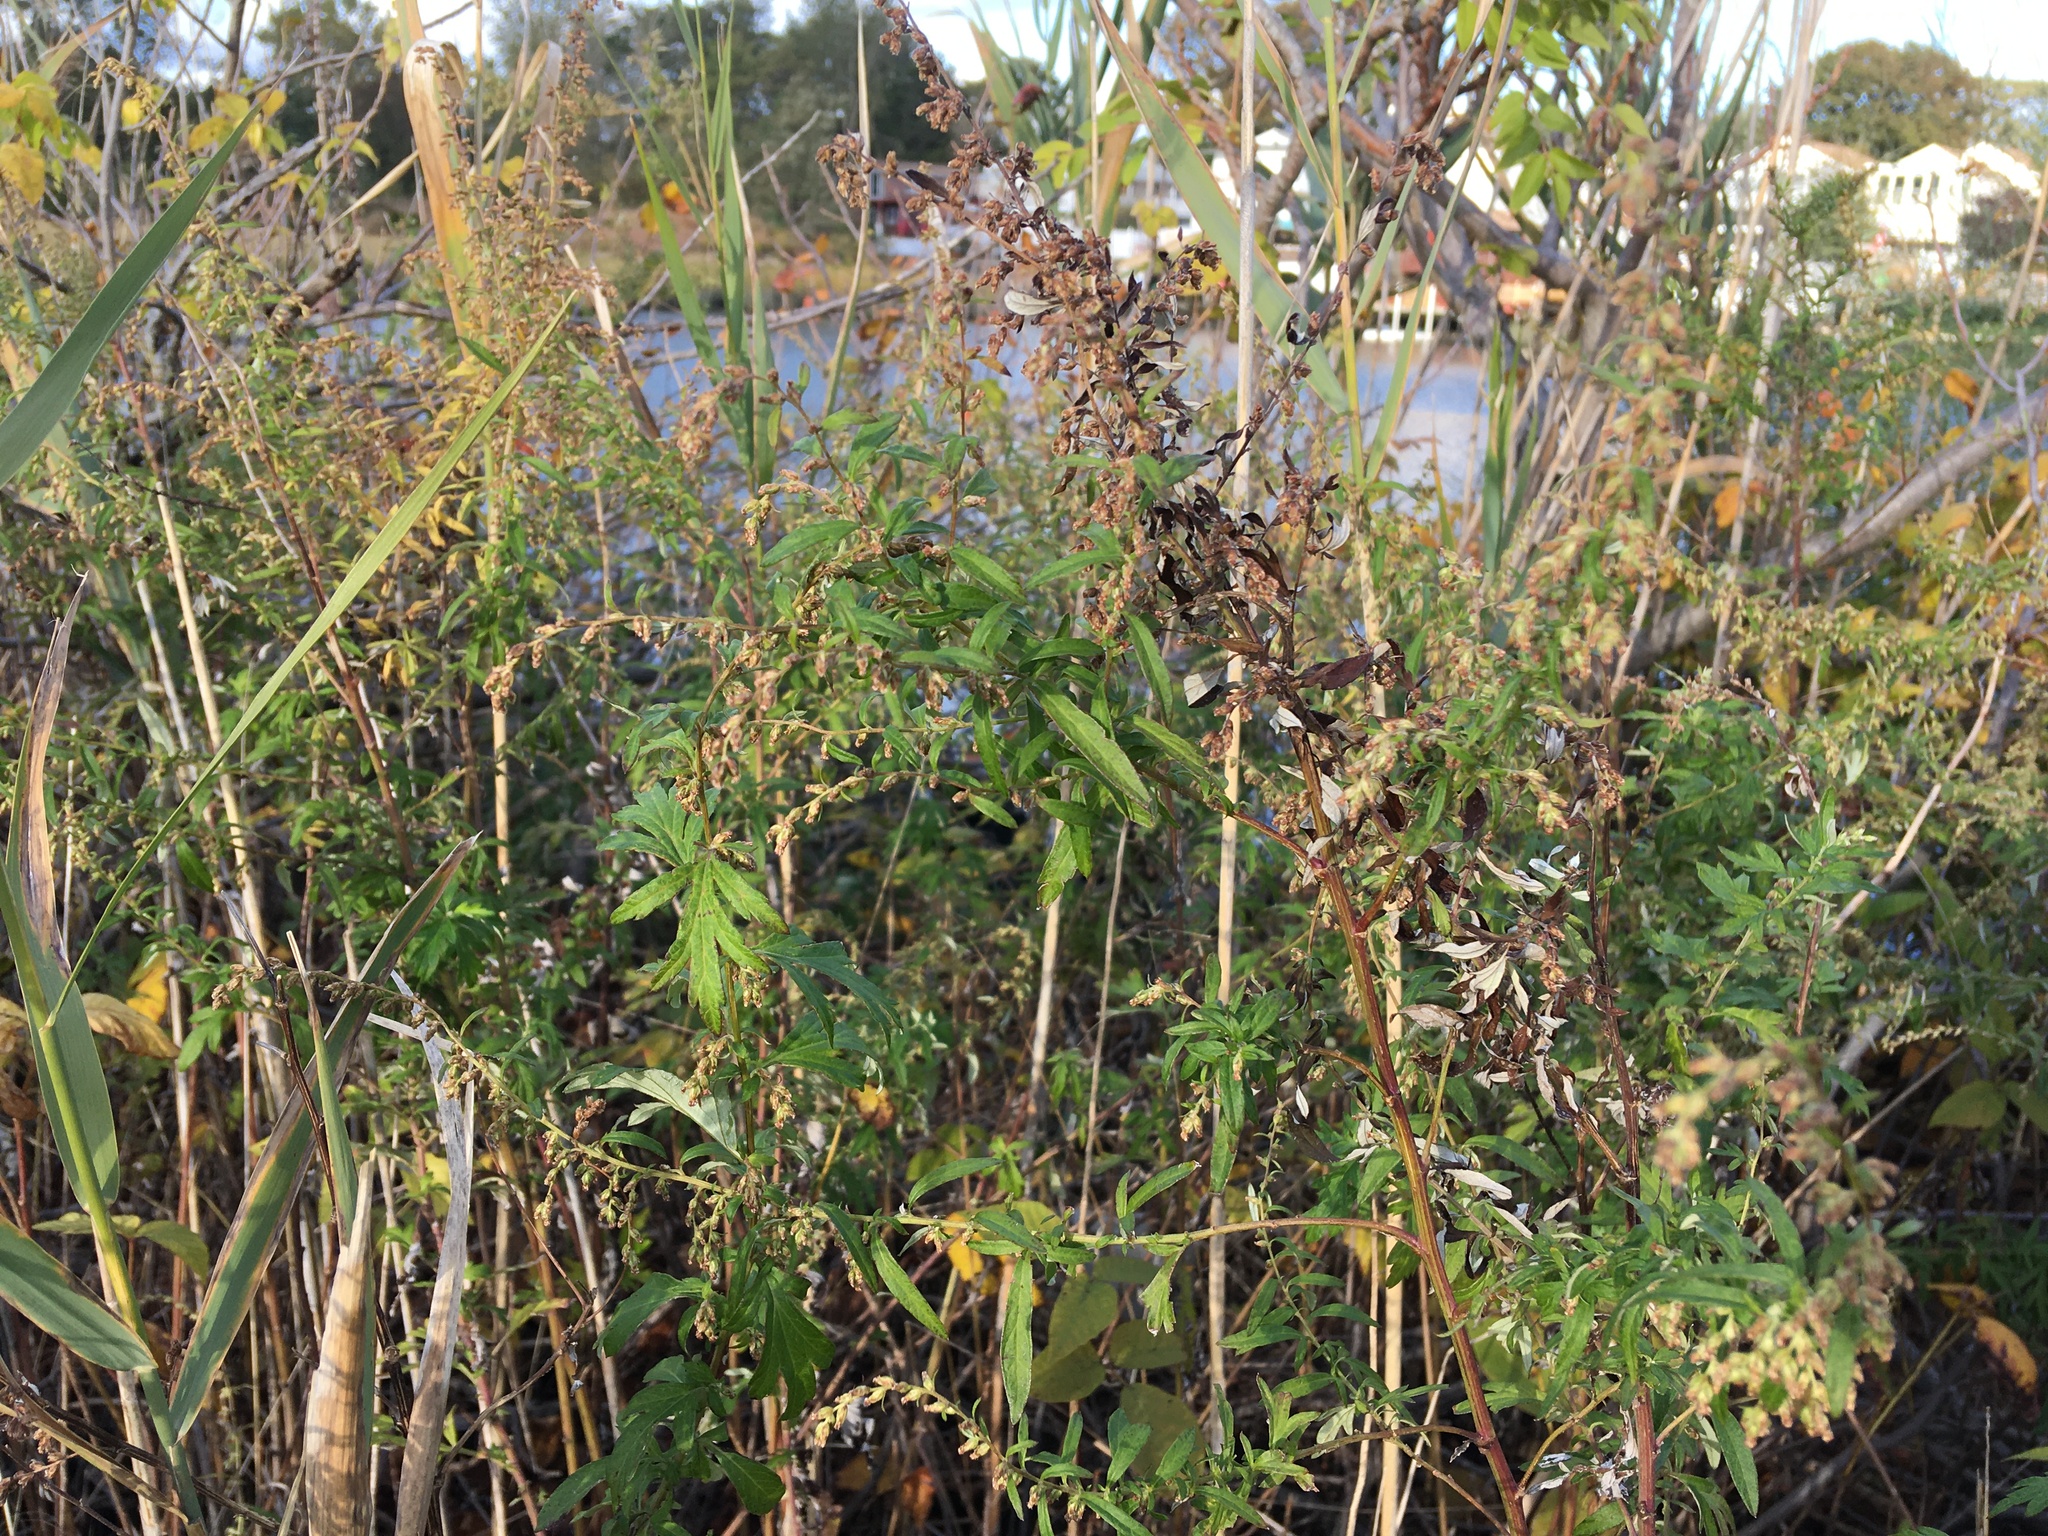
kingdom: Plantae
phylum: Tracheophyta
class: Magnoliopsida
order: Asterales
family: Asteraceae
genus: Artemisia
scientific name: Artemisia vulgaris
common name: Mugwort
